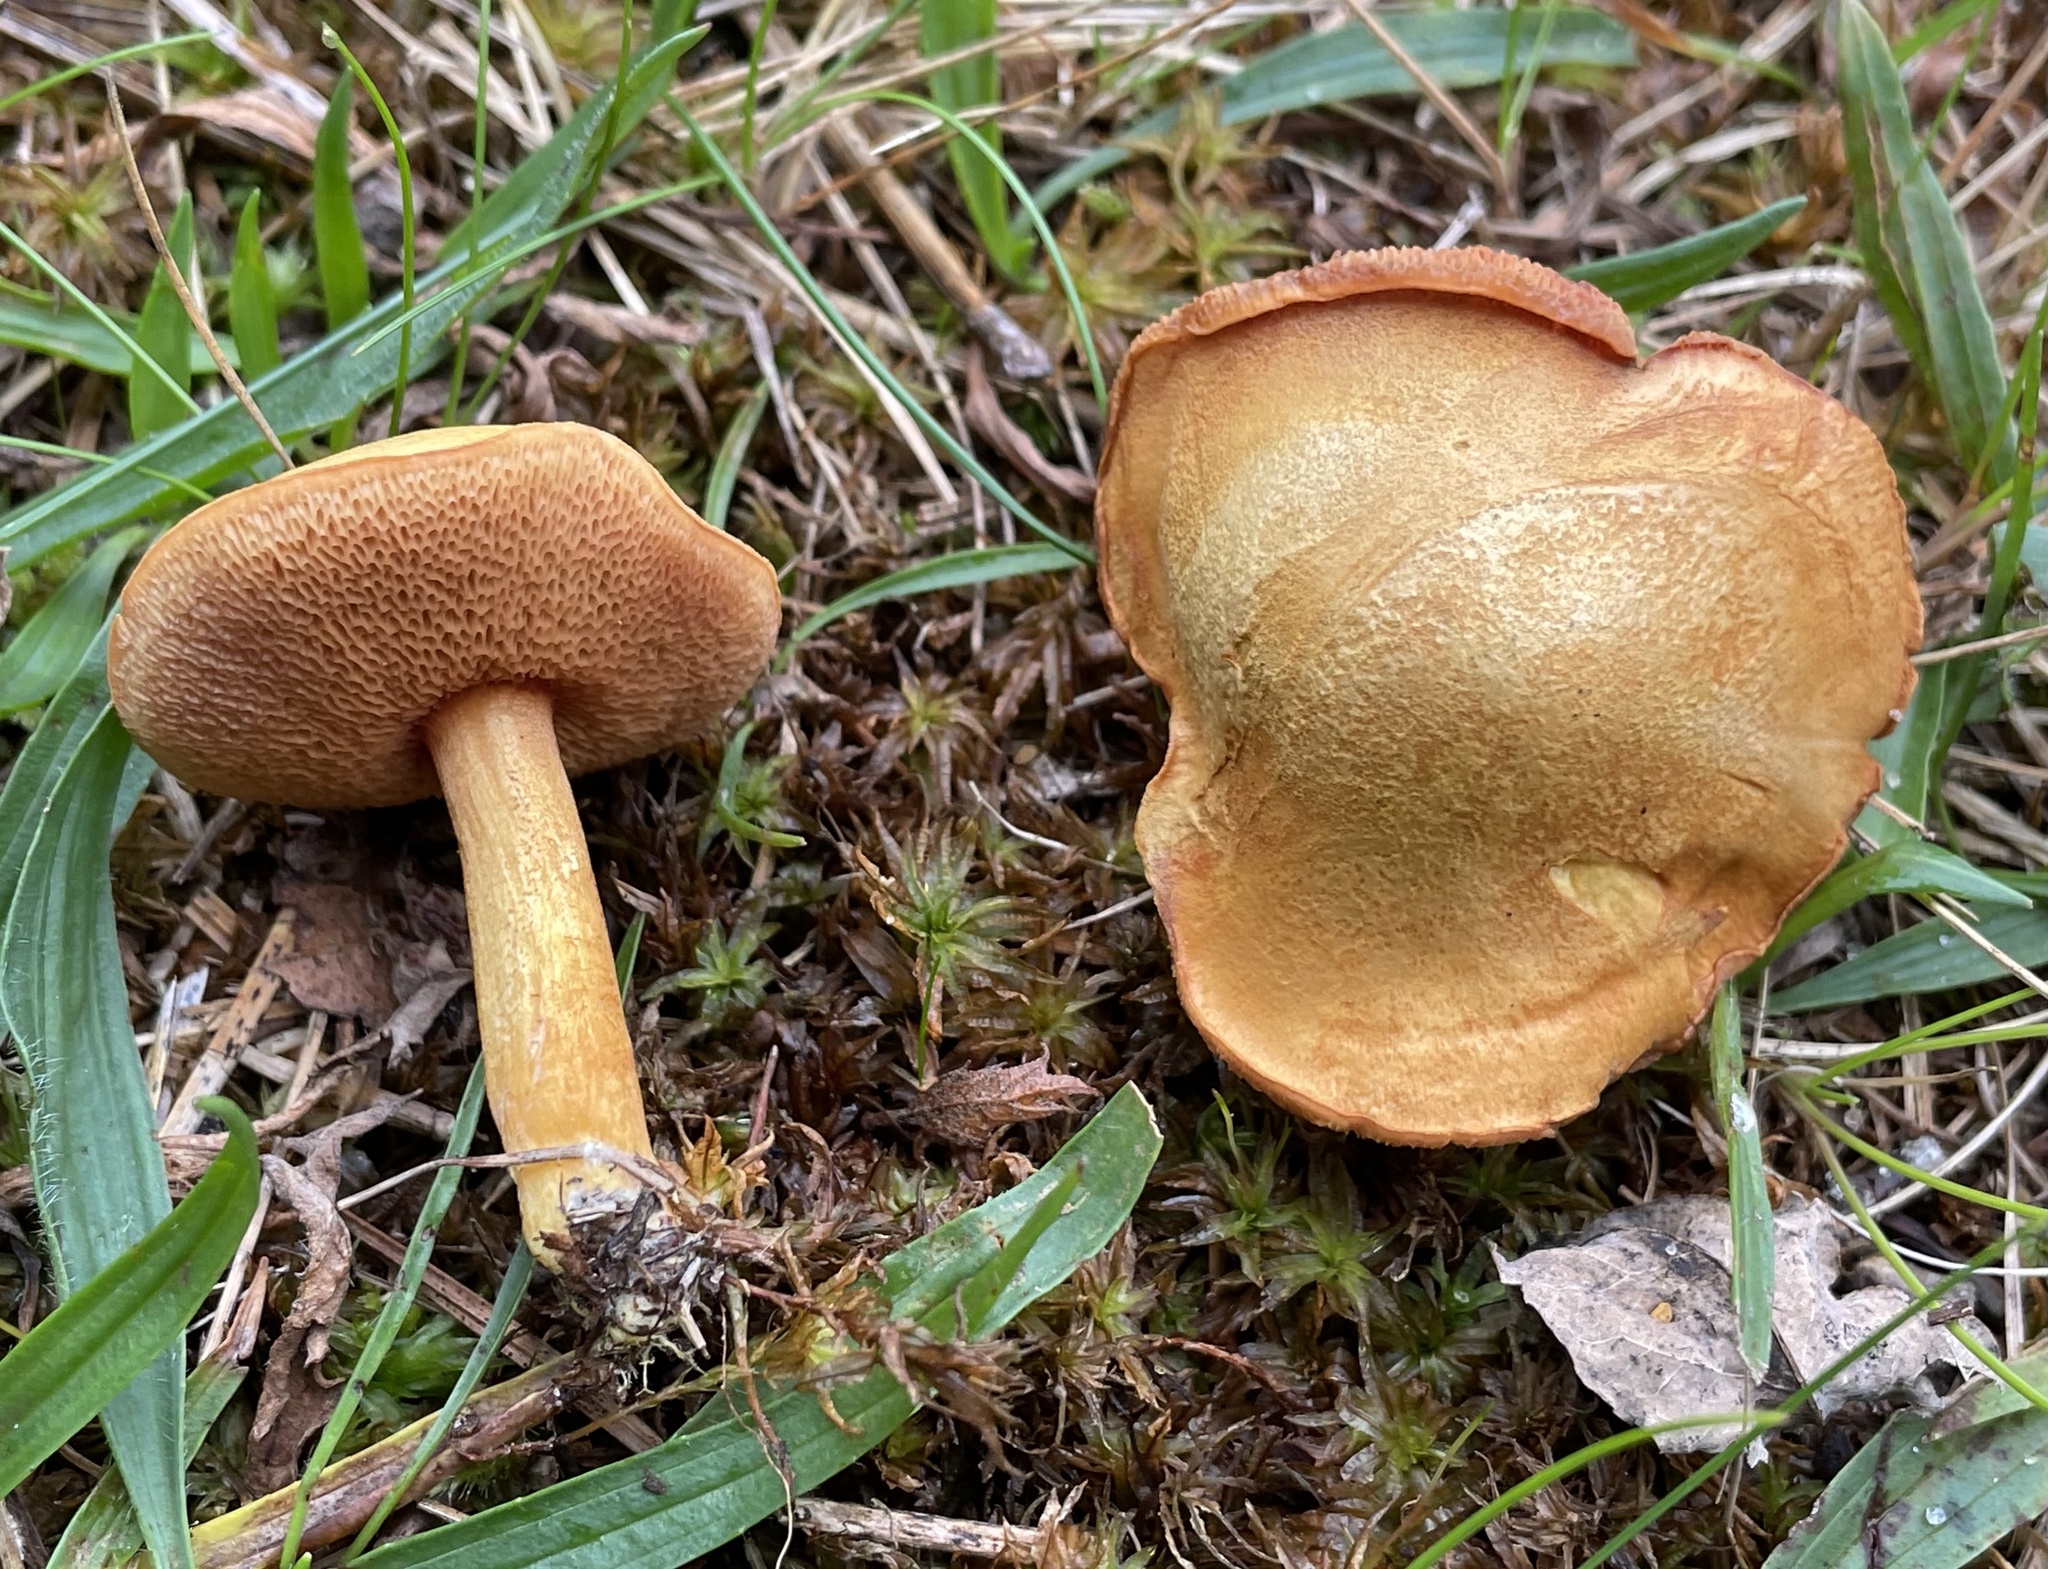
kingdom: Fungi
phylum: Basidiomycota
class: Agaricomycetes
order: Boletales
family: Boletaceae
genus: Chalciporus
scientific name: Chalciporus rubinellus
